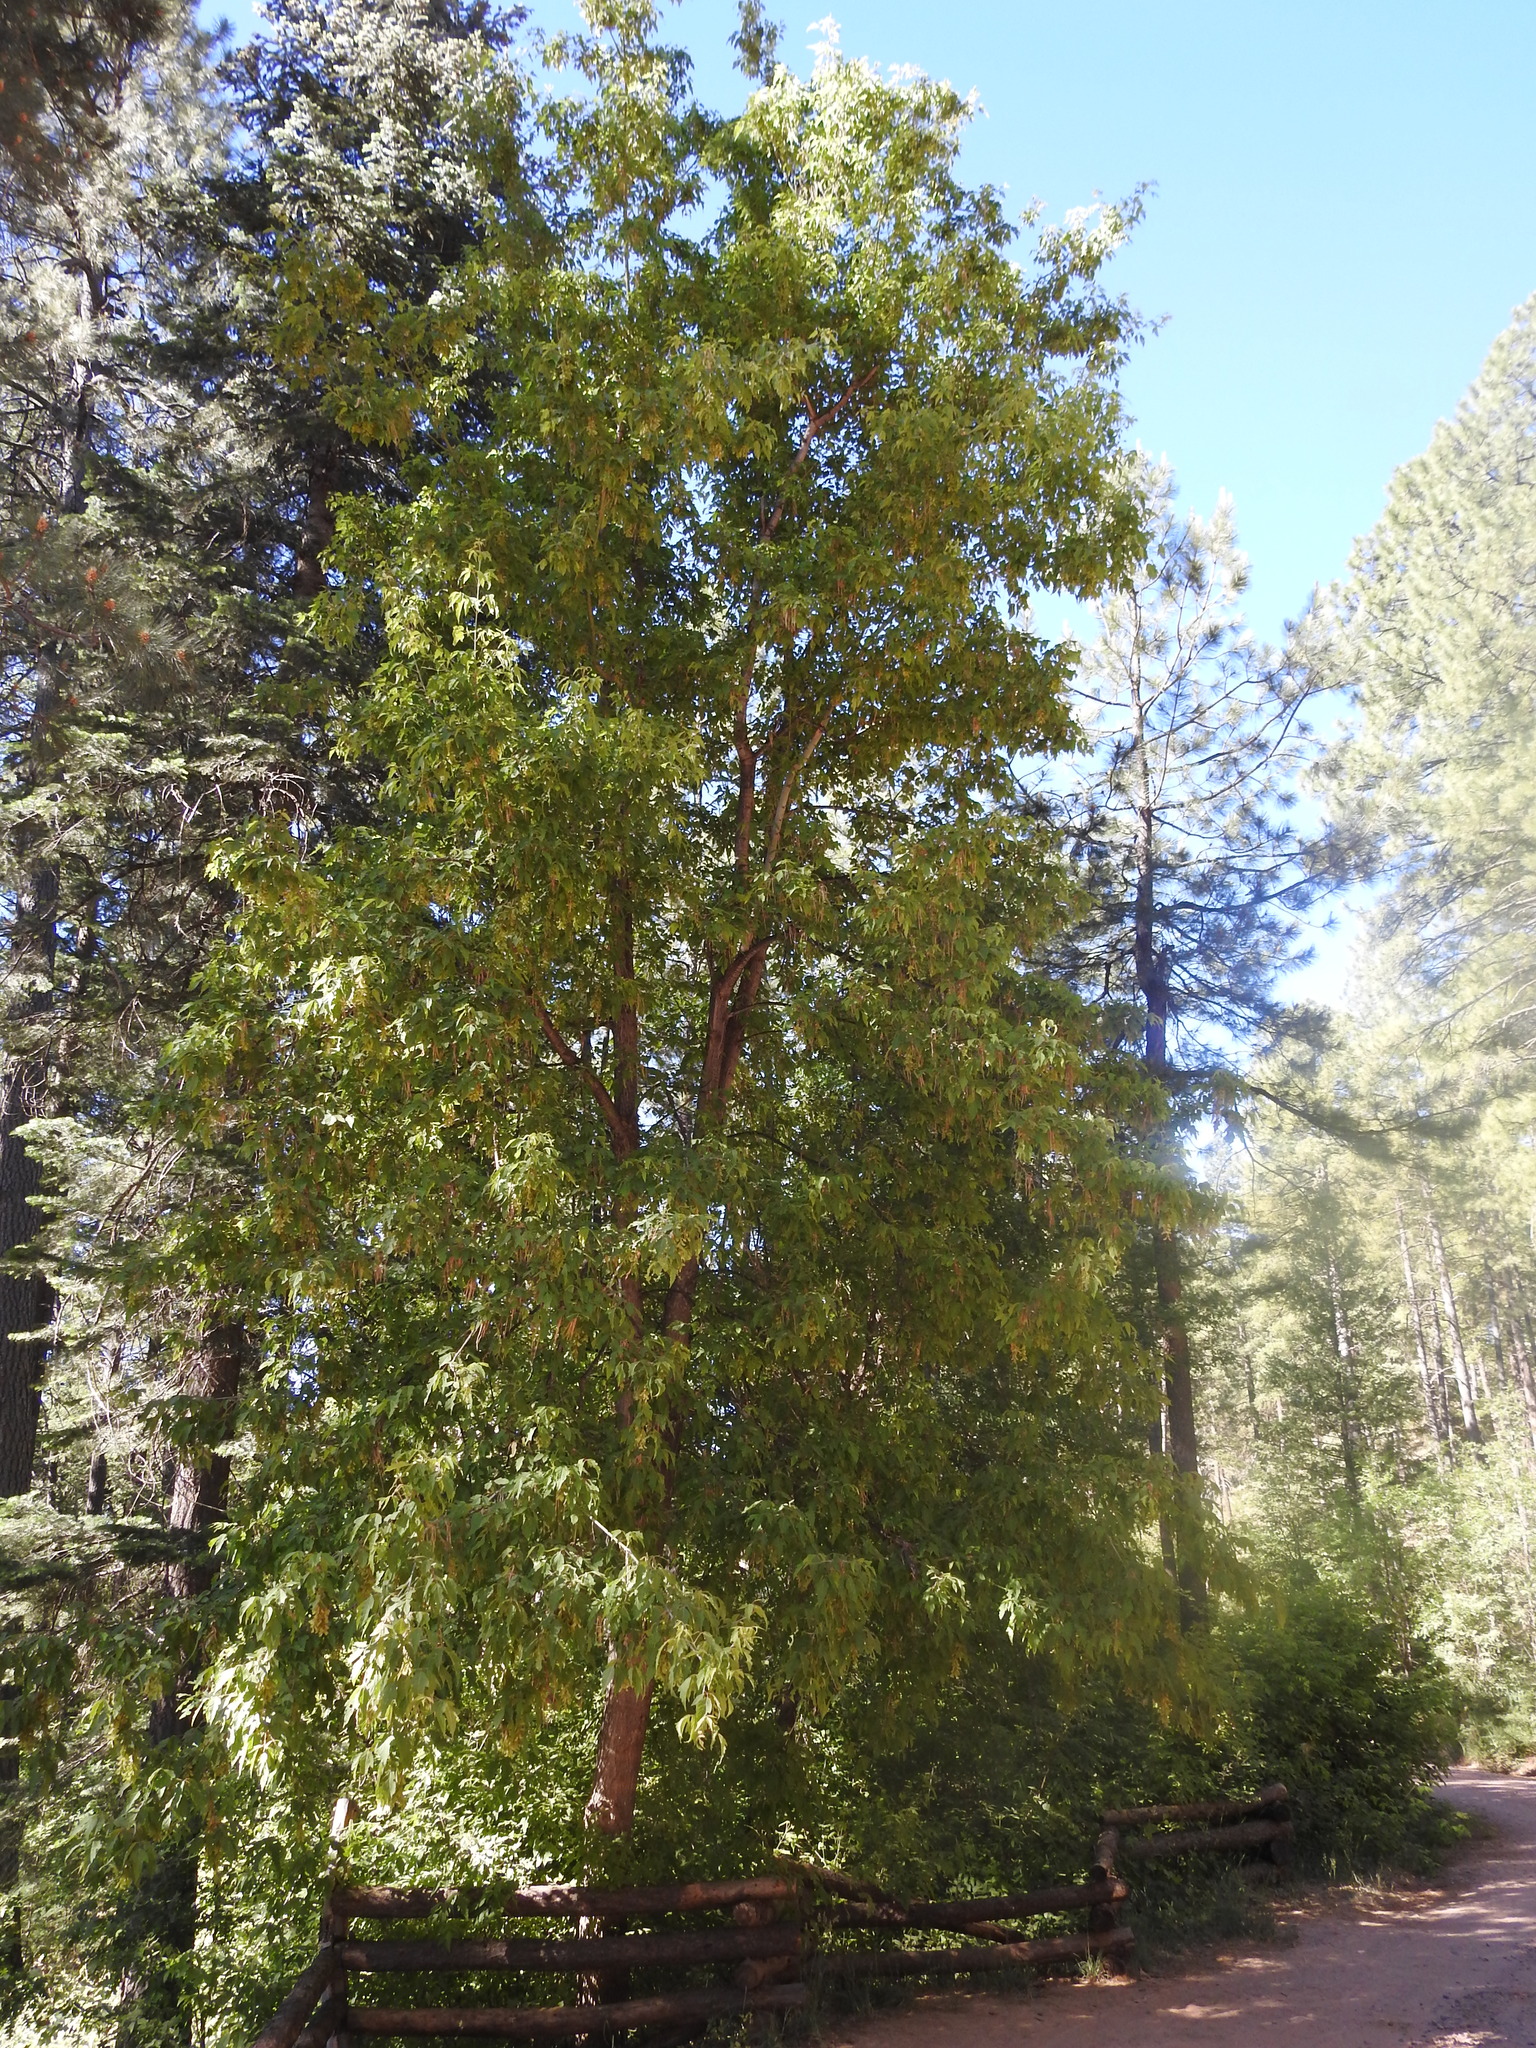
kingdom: Plantae
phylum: Tracheophyta
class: Magnoliopsida
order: Sapindales
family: Sapindaceae
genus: Acer
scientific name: Acer negundo
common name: Ashleaf maple
